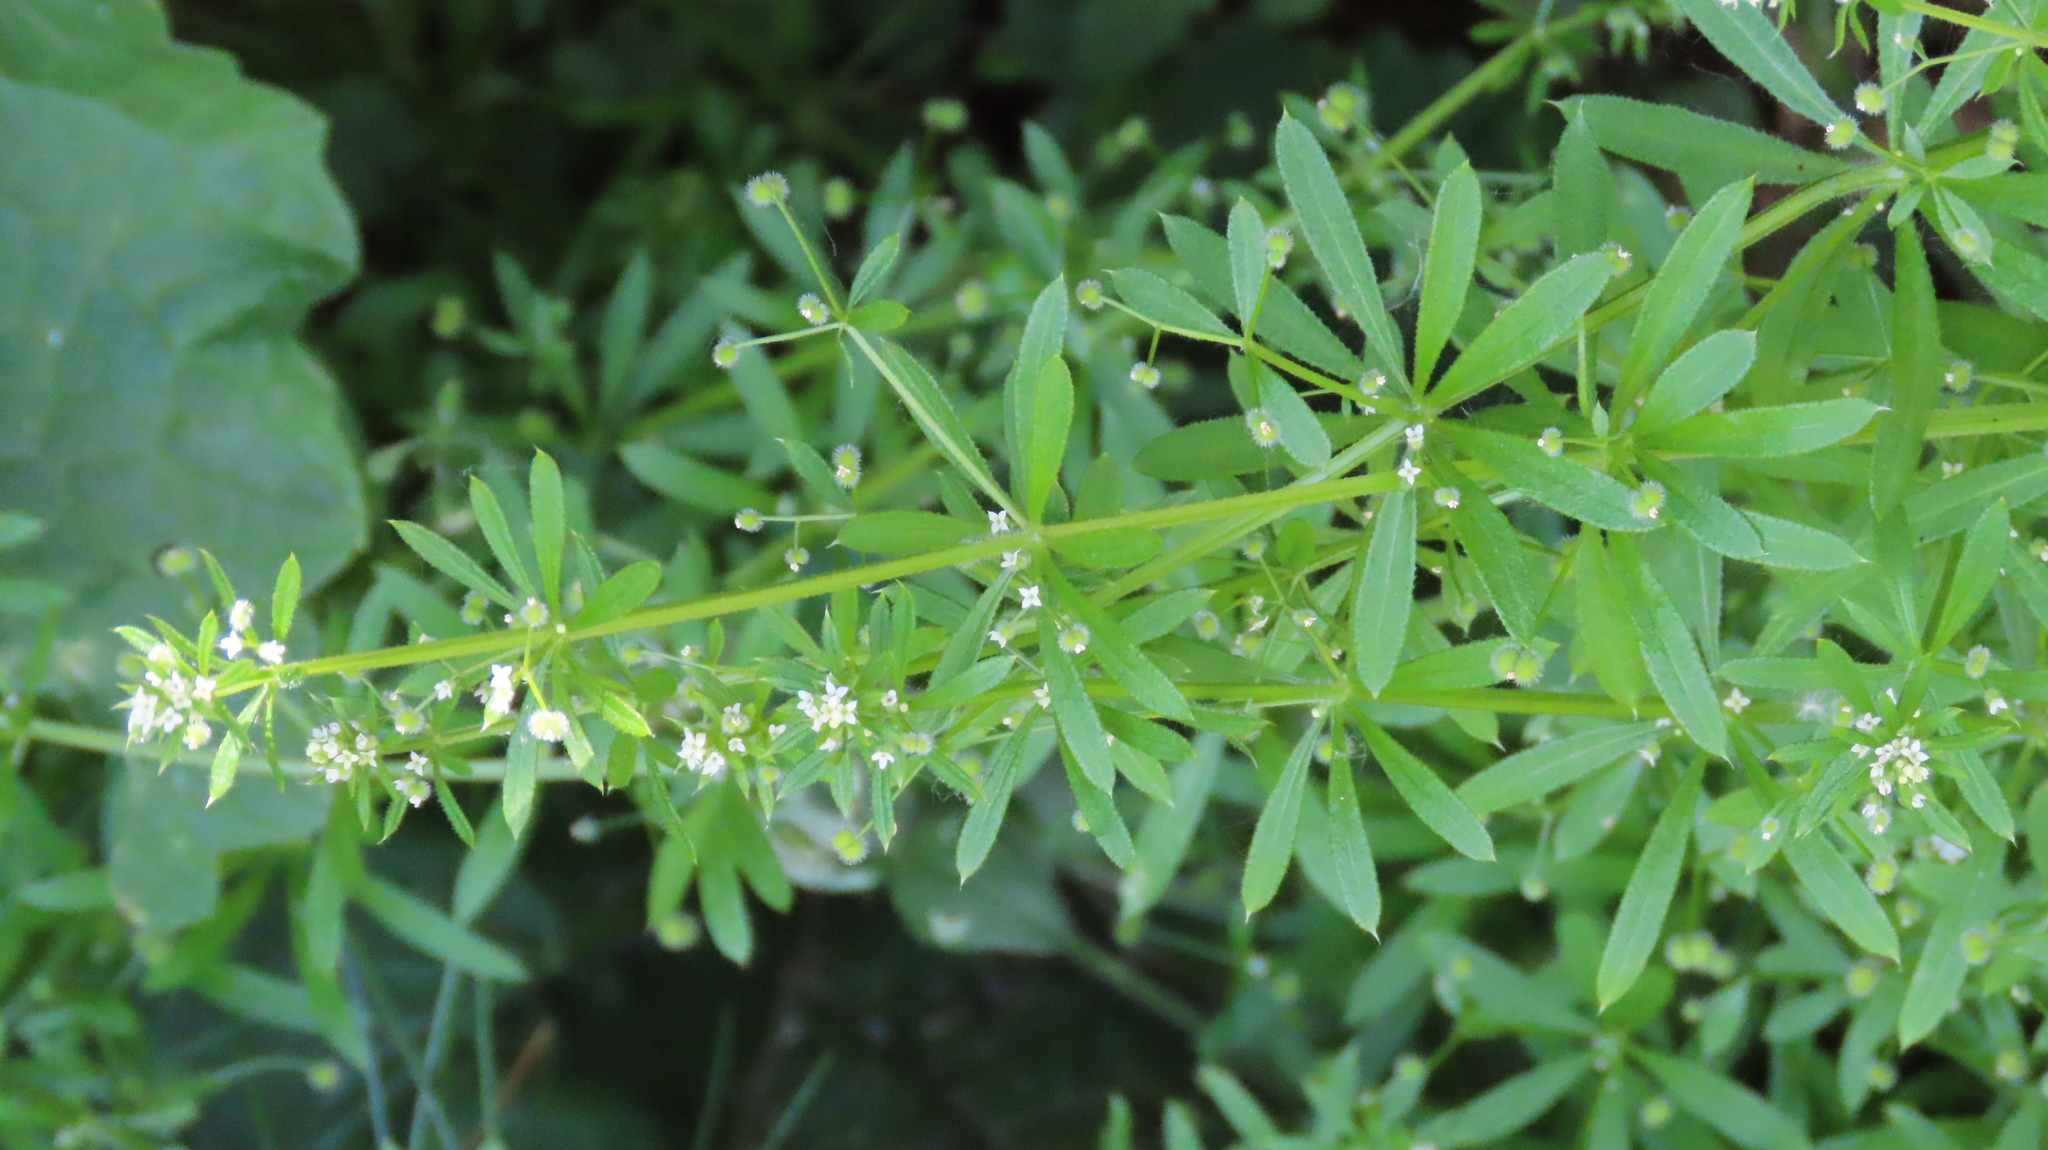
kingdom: Plantae
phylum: Tracheophyta
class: Magnoliopsida
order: Gentianales
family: Rubiaceae
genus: Galium
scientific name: Galium aparine
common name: Cleavers
